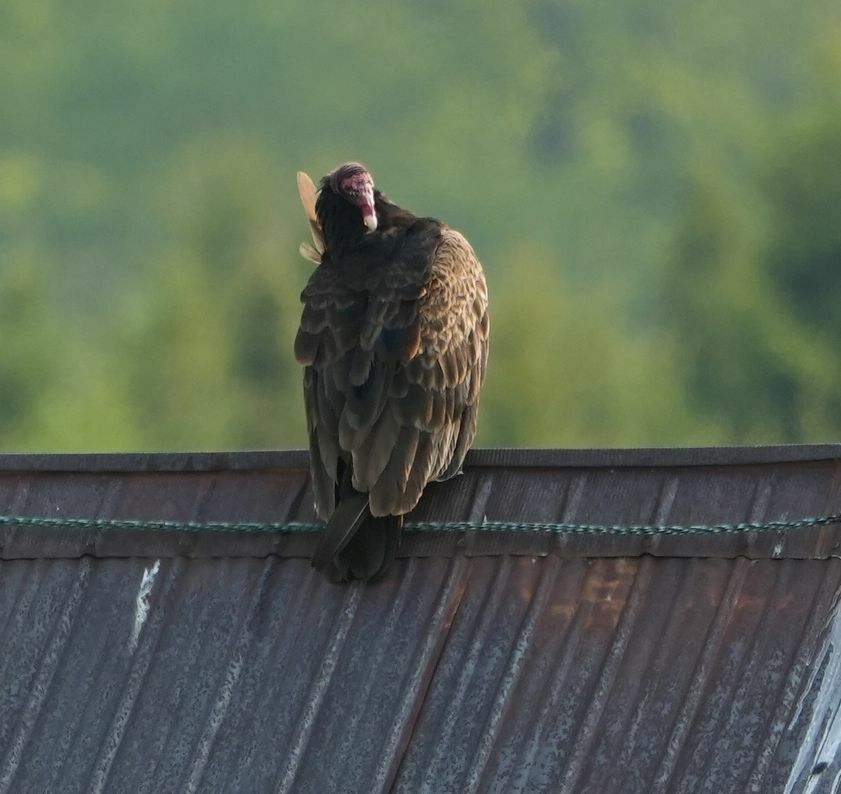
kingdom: Animalia
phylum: Chordata
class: Aves
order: Accipitriformes
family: Cathartidae
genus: Cathartes
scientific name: Cathartes aura
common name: Turkey vulture
